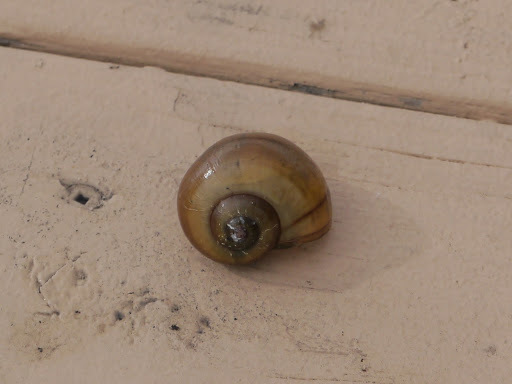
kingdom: Animalia
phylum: Mollusca
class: Gastropoda
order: Architaenioglossa
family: Ampullariidae
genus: Pomacea
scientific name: Pomacea paludosa
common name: Florida applesnail
